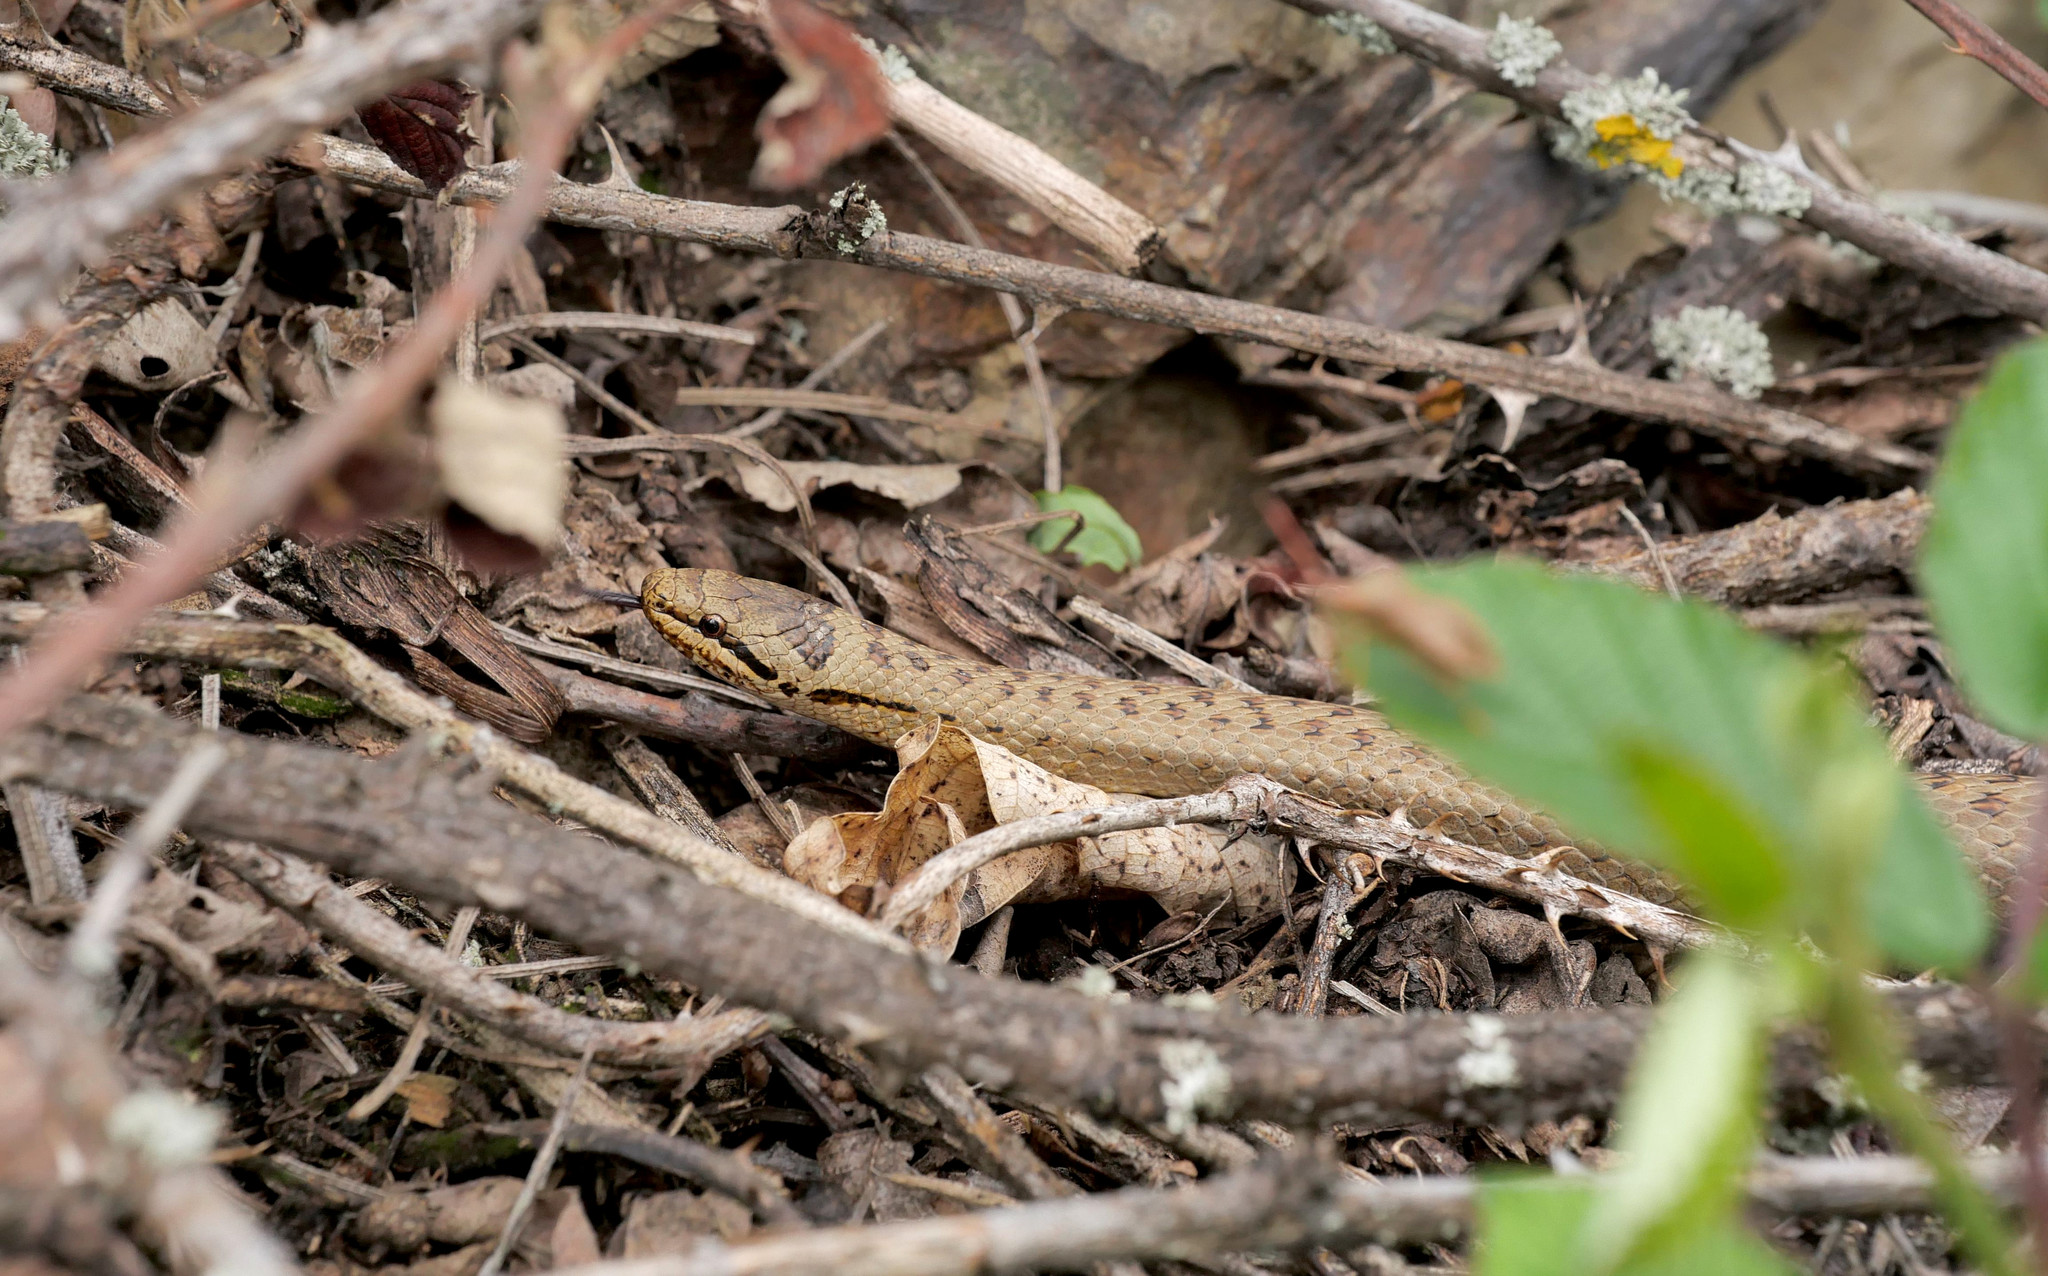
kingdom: Animalia
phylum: Chordata
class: Squamata
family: Colubridae
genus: Coronella
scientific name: Coronella austriaca
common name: Smooth snake
